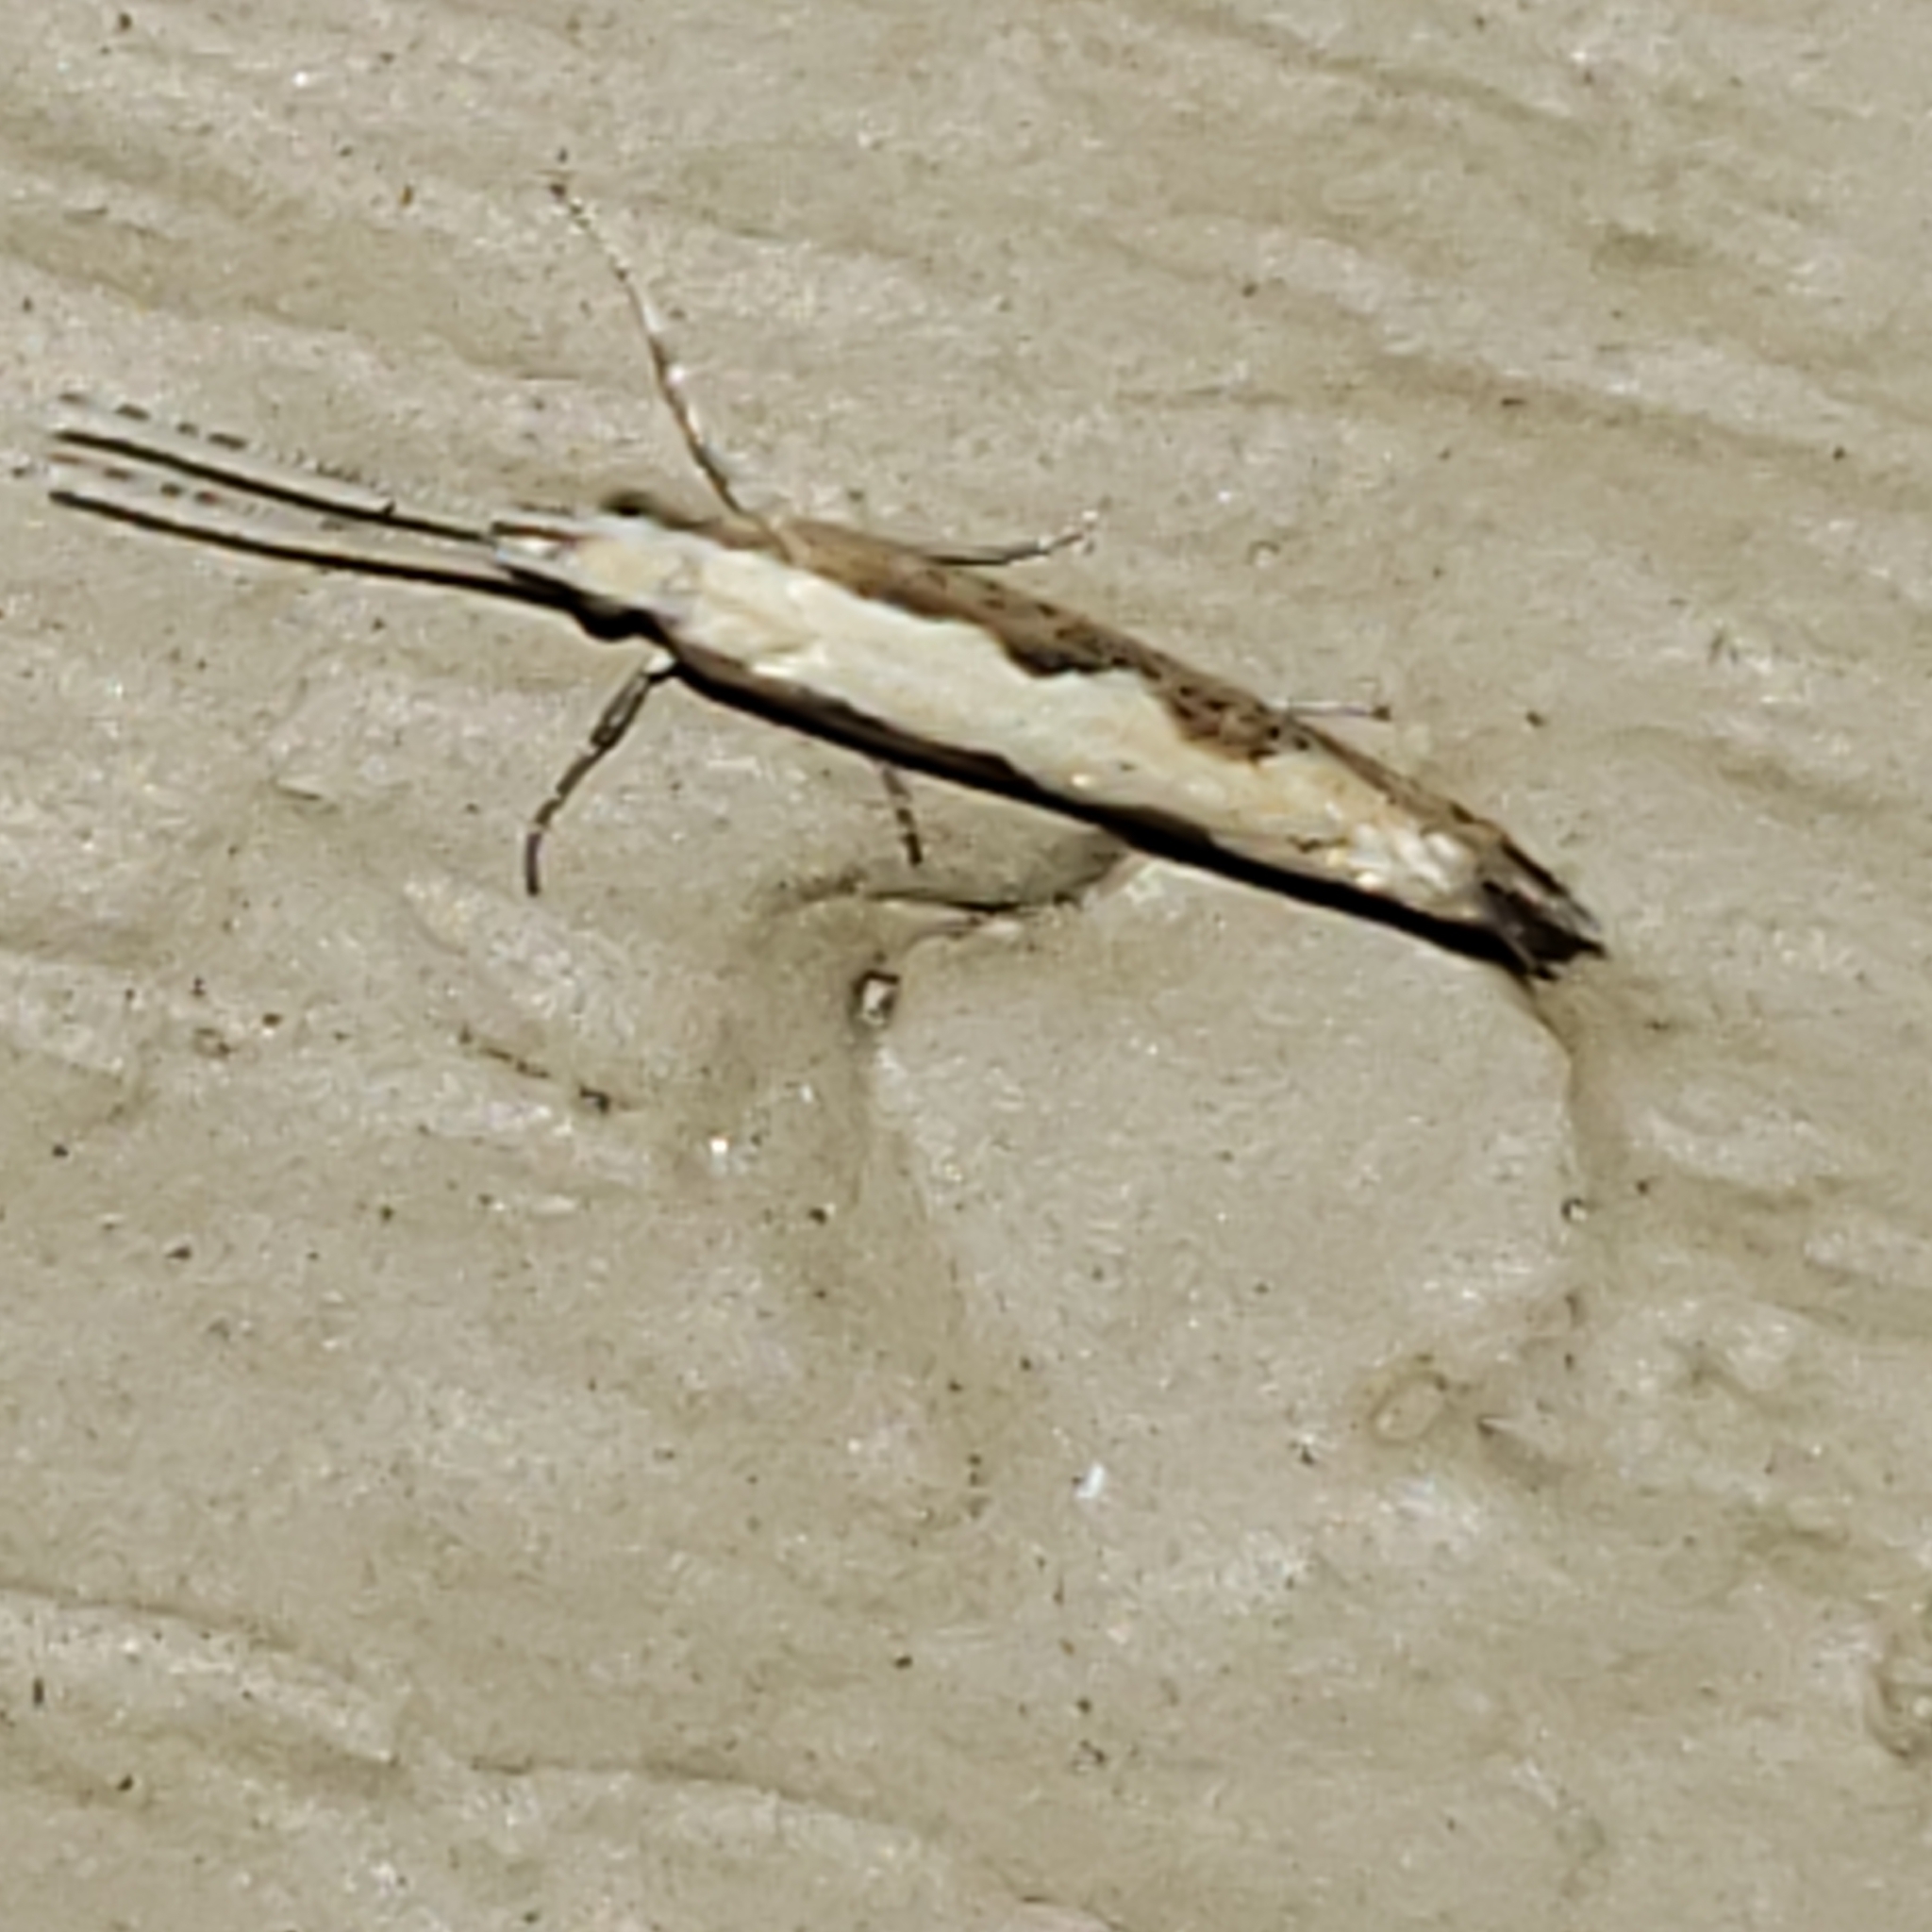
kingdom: Animalia
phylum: Arthropoda
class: Insecta
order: Lepidoptera
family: Plutellidae
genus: Plutella
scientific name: Plutella xylostella
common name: Diamond-back moth
